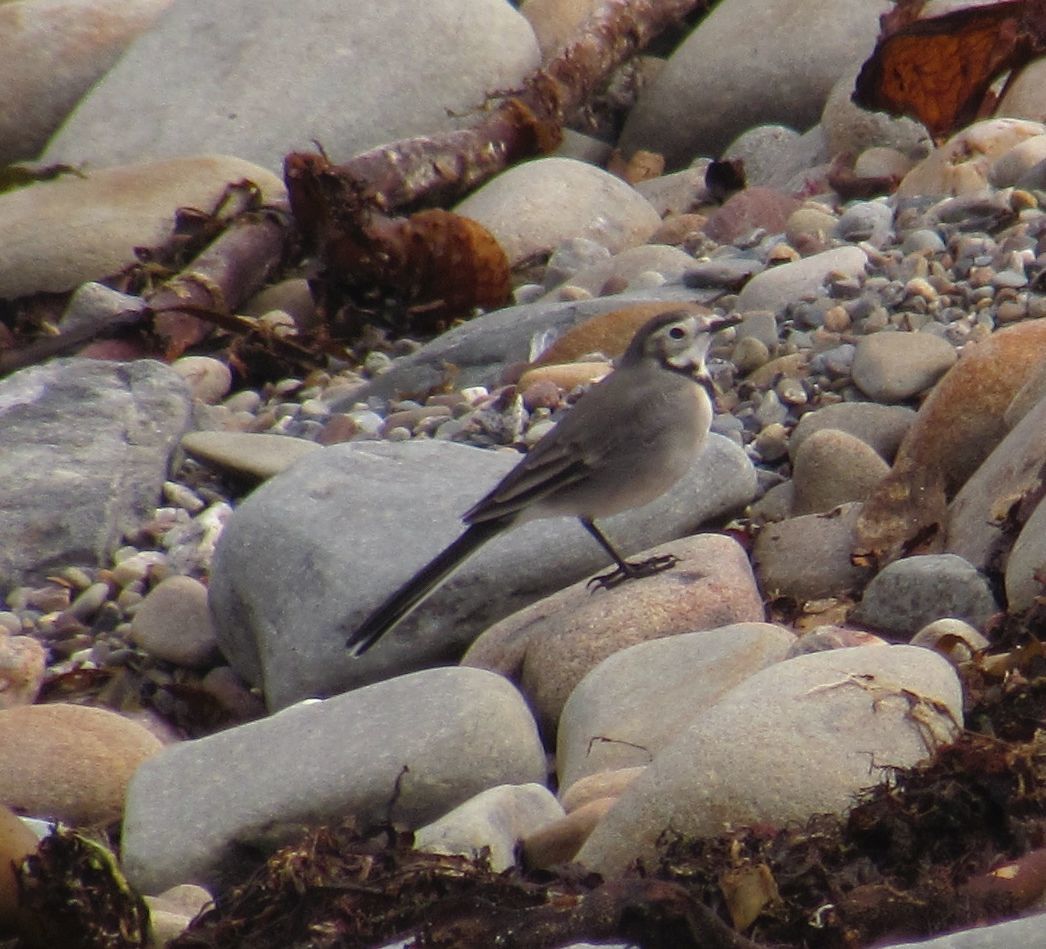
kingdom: Animalia
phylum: Chordata
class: Aves
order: Passeriformes
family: Motacillidae
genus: Motacilla
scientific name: Motacilla alba
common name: White wagtail
